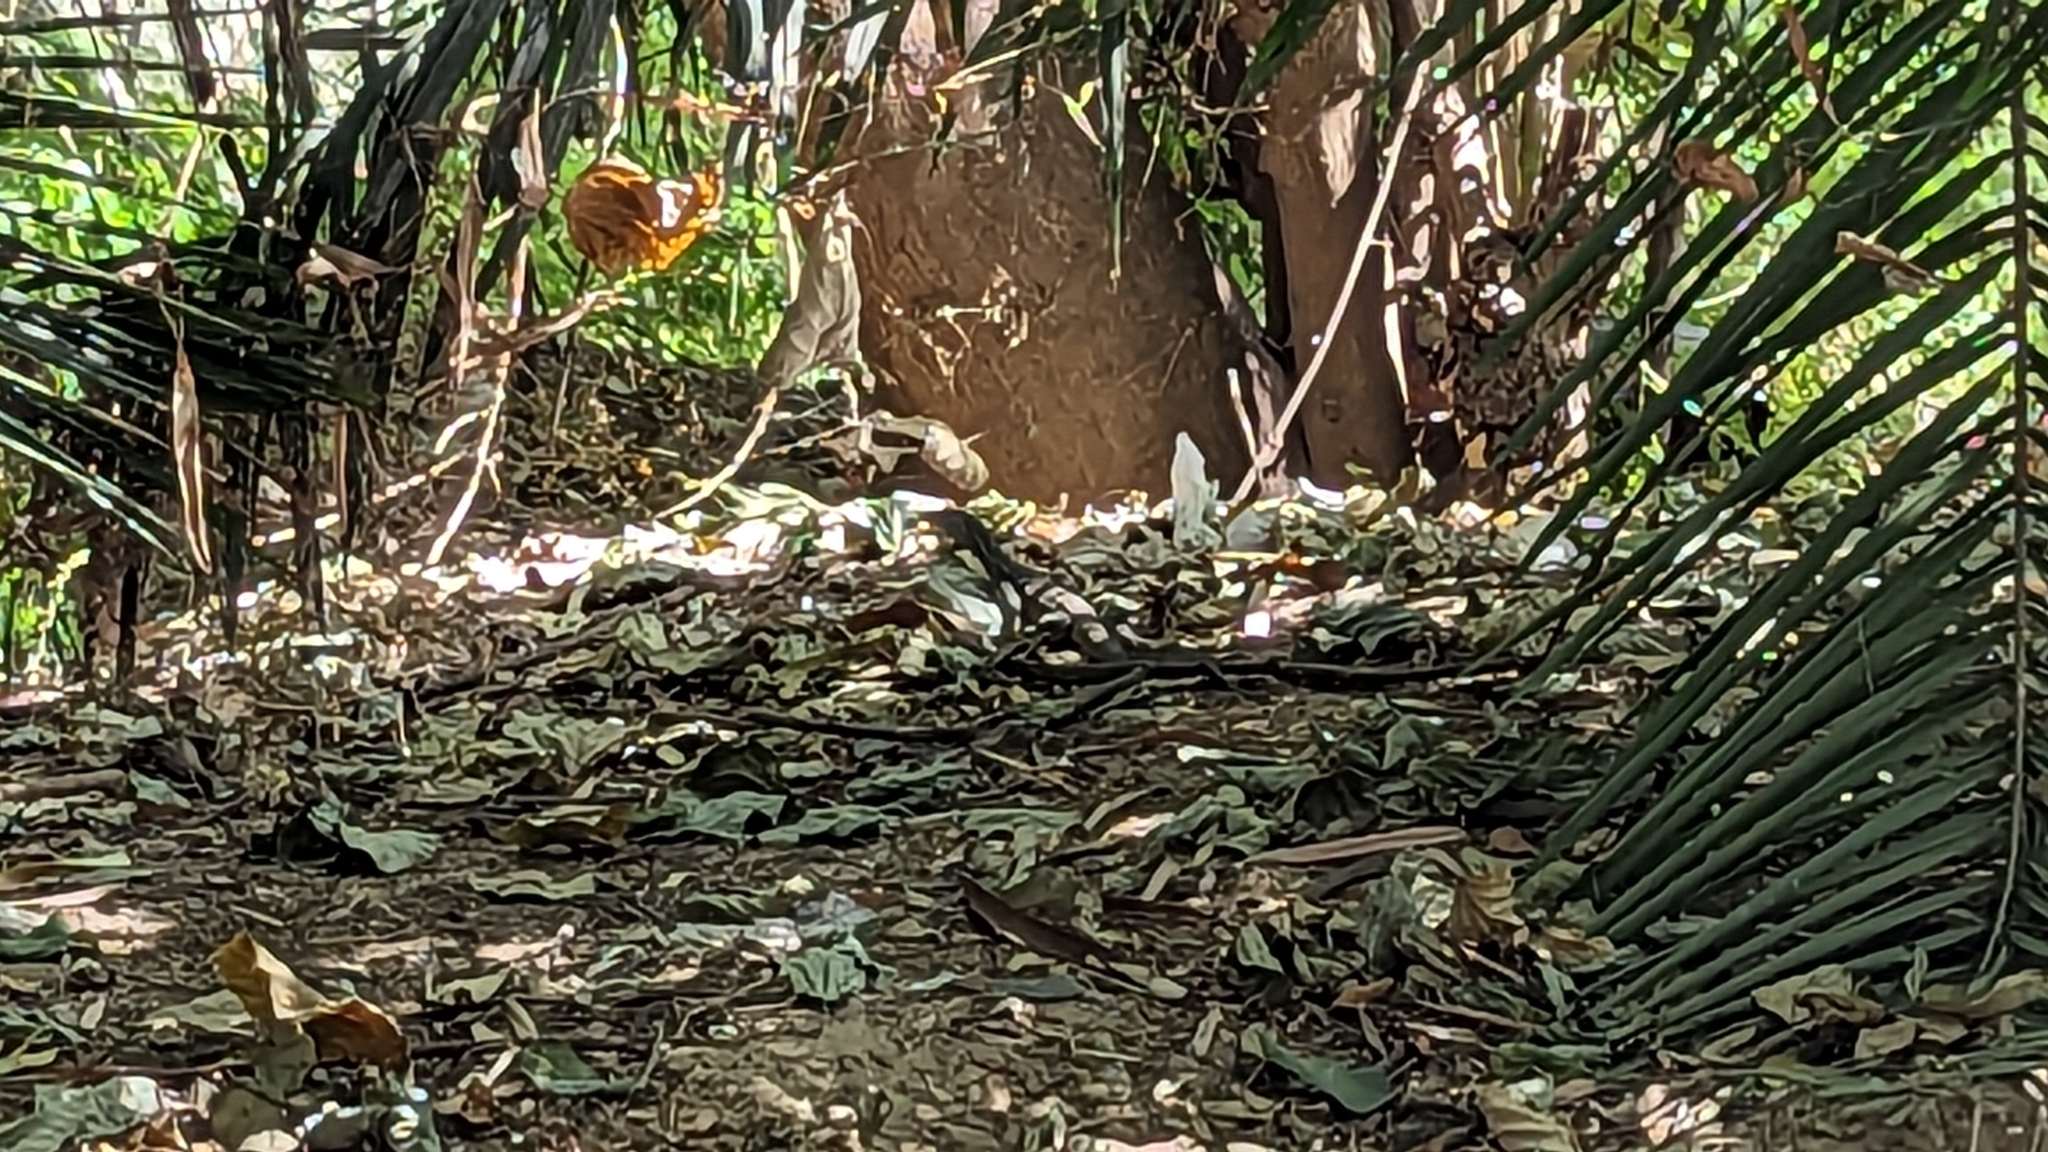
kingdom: Animalia
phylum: Chordata
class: Squamata
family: Varanidae
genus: Varanus
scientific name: Varanus niloticus
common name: Nile monitor
